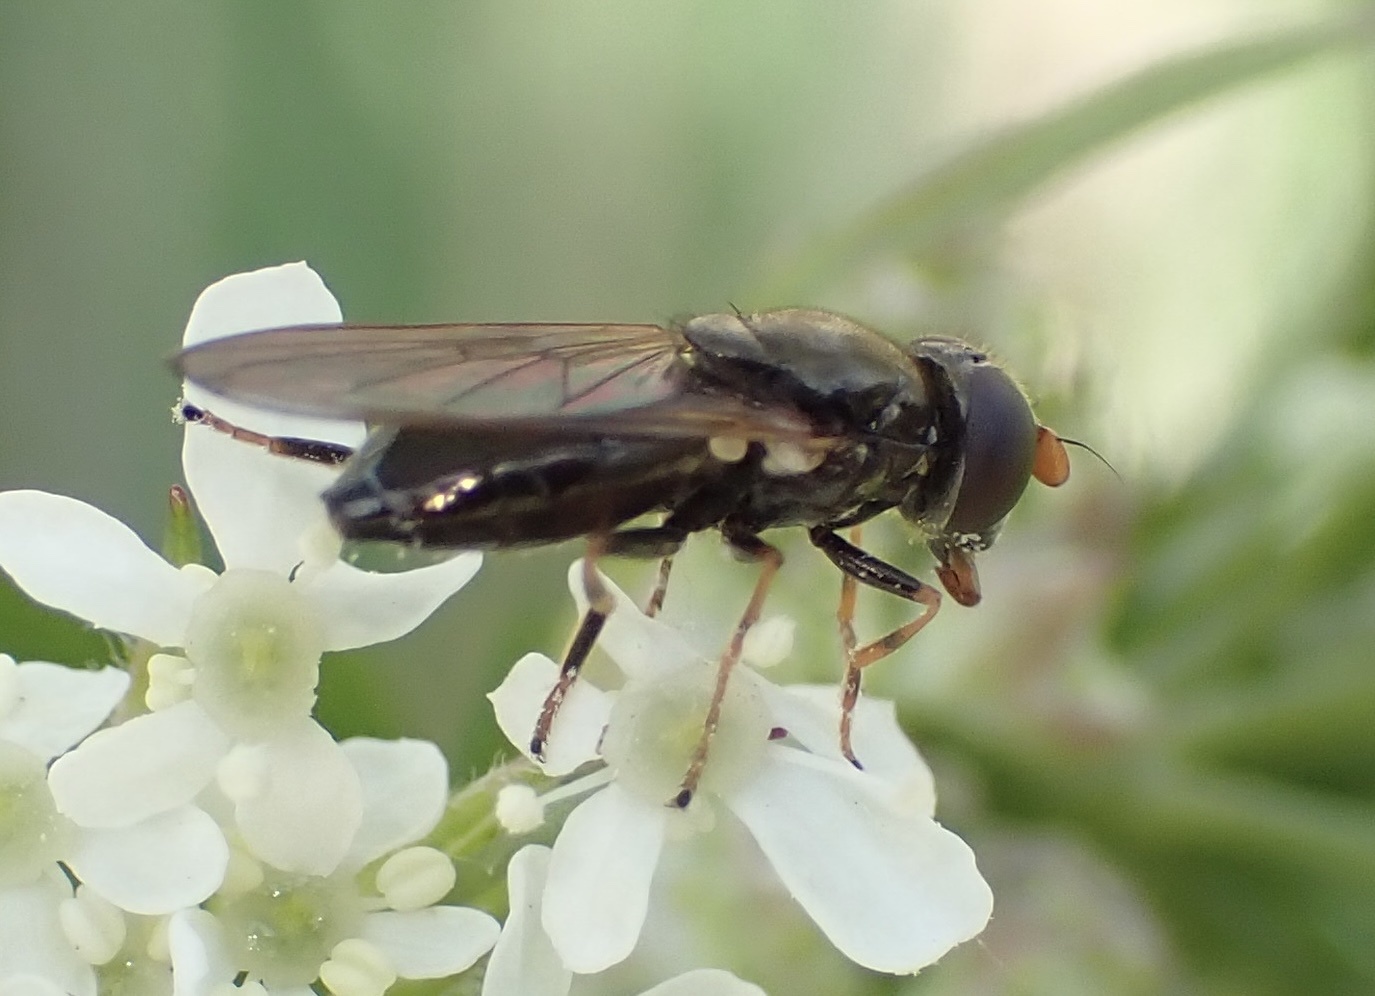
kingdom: Animalia
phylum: Arthropoda
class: Insecta
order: Diptera
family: Syrphidae
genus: Cheilosia
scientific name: Cheilosia pagana
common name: Hover fly
